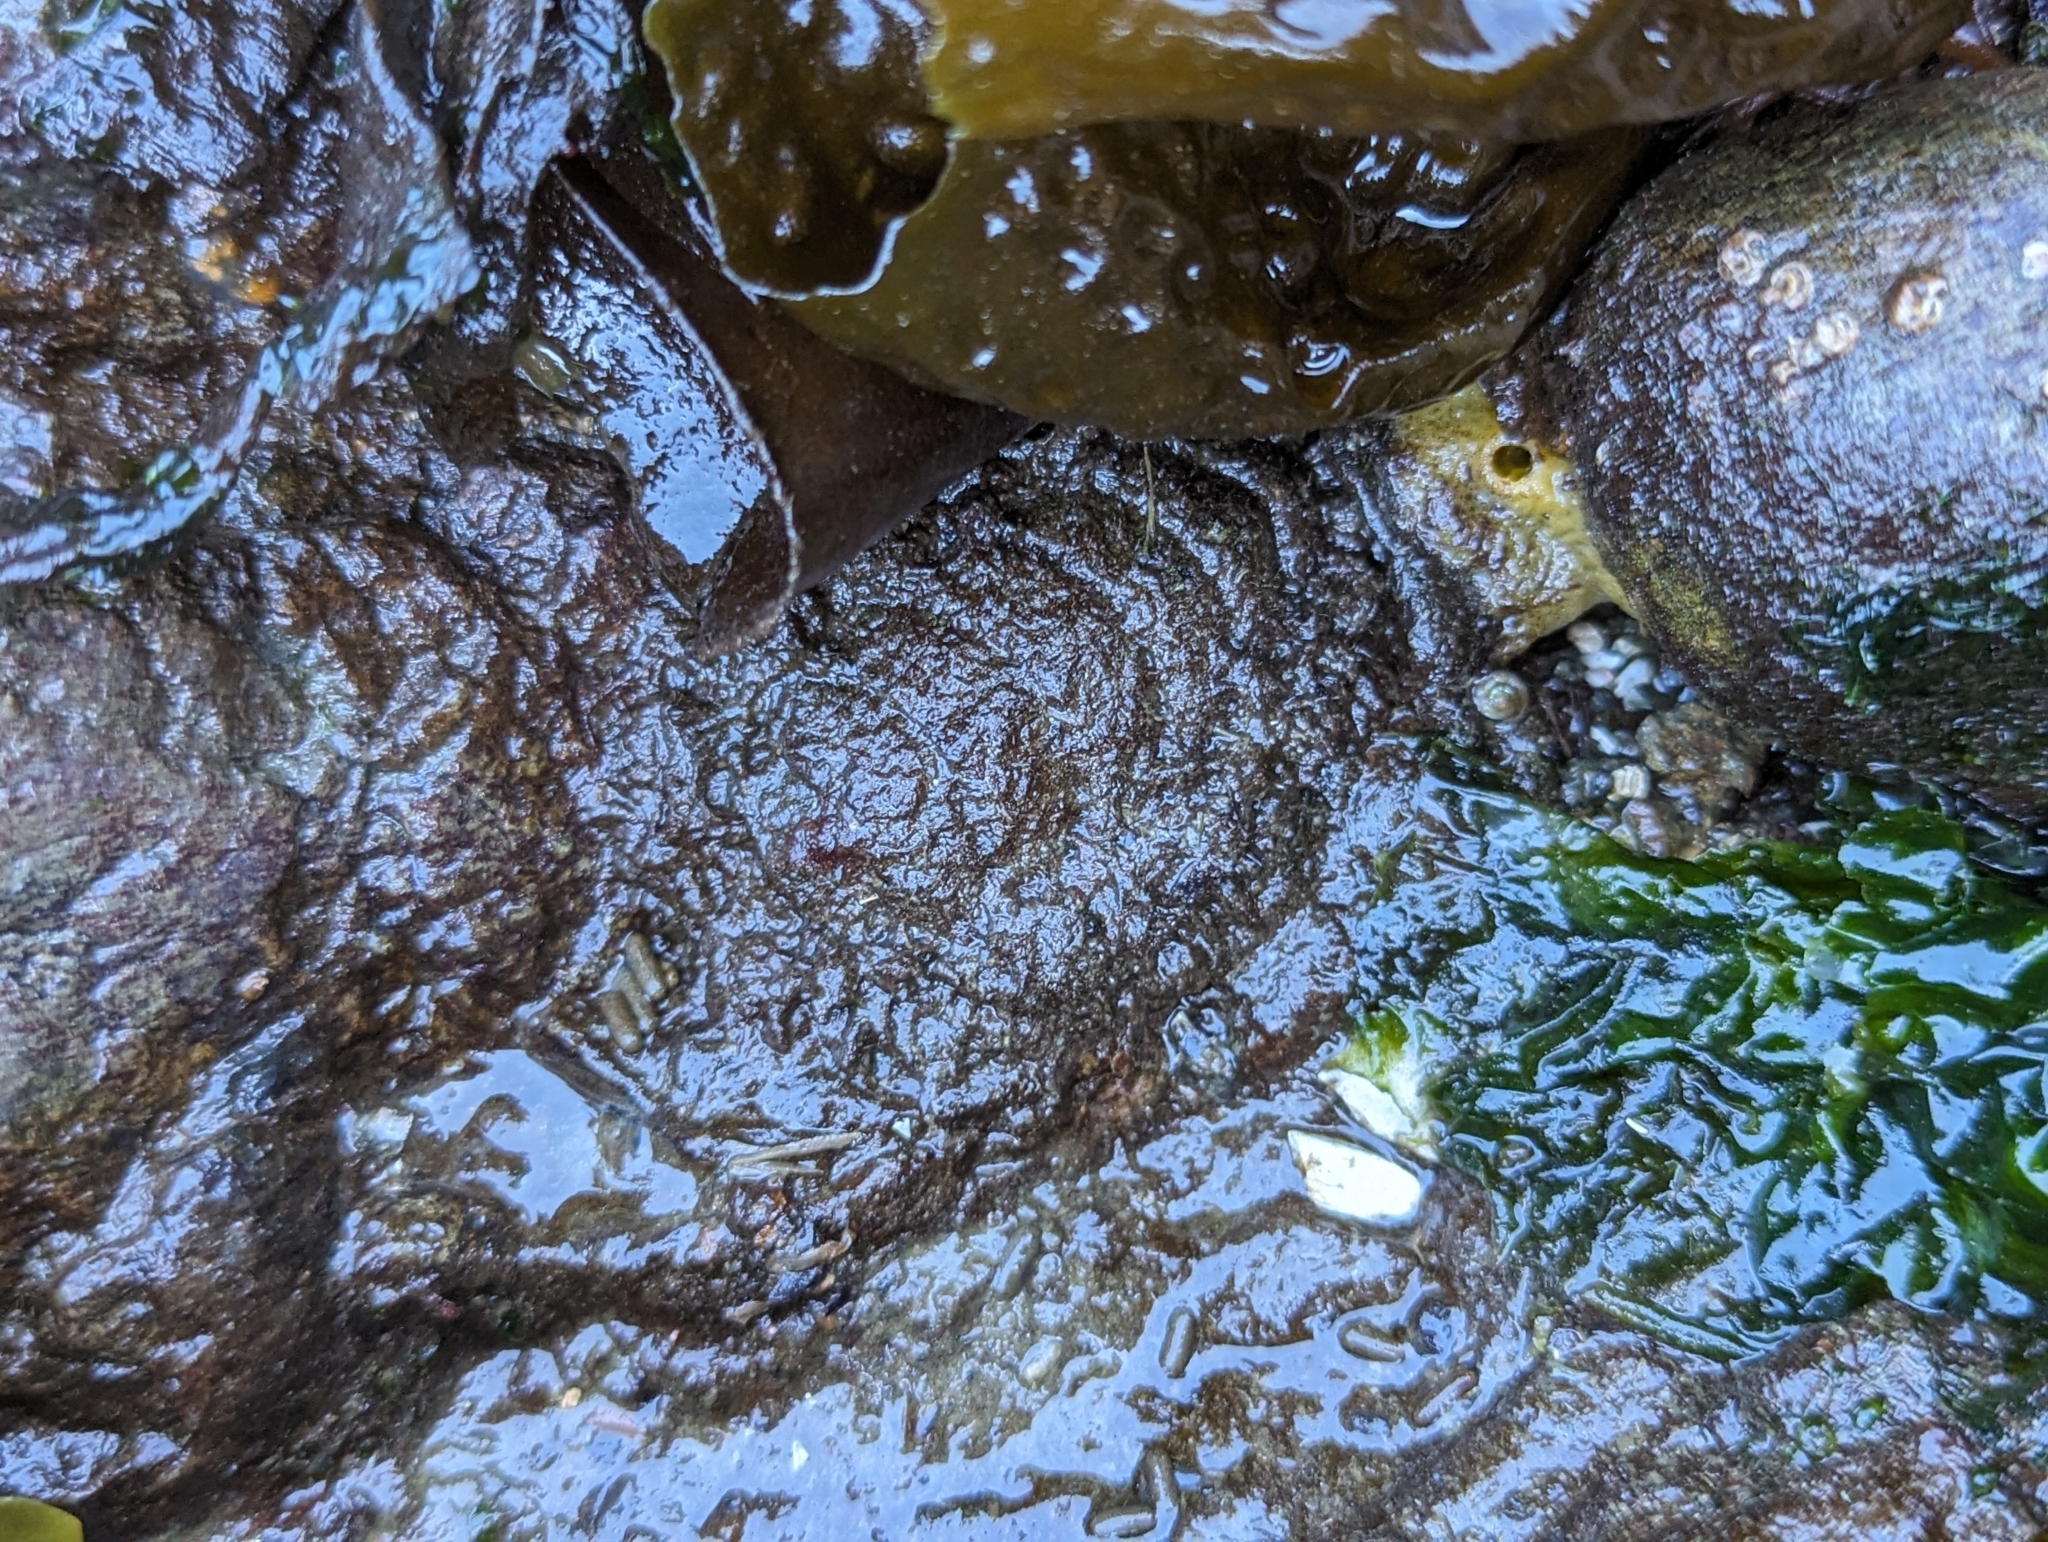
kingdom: Animalia
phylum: Mollusca
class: Polyplacophora
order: Chitonida
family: Mopaliidae
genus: Mopalia
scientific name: Mopalia muscosa
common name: Mossy chiton
